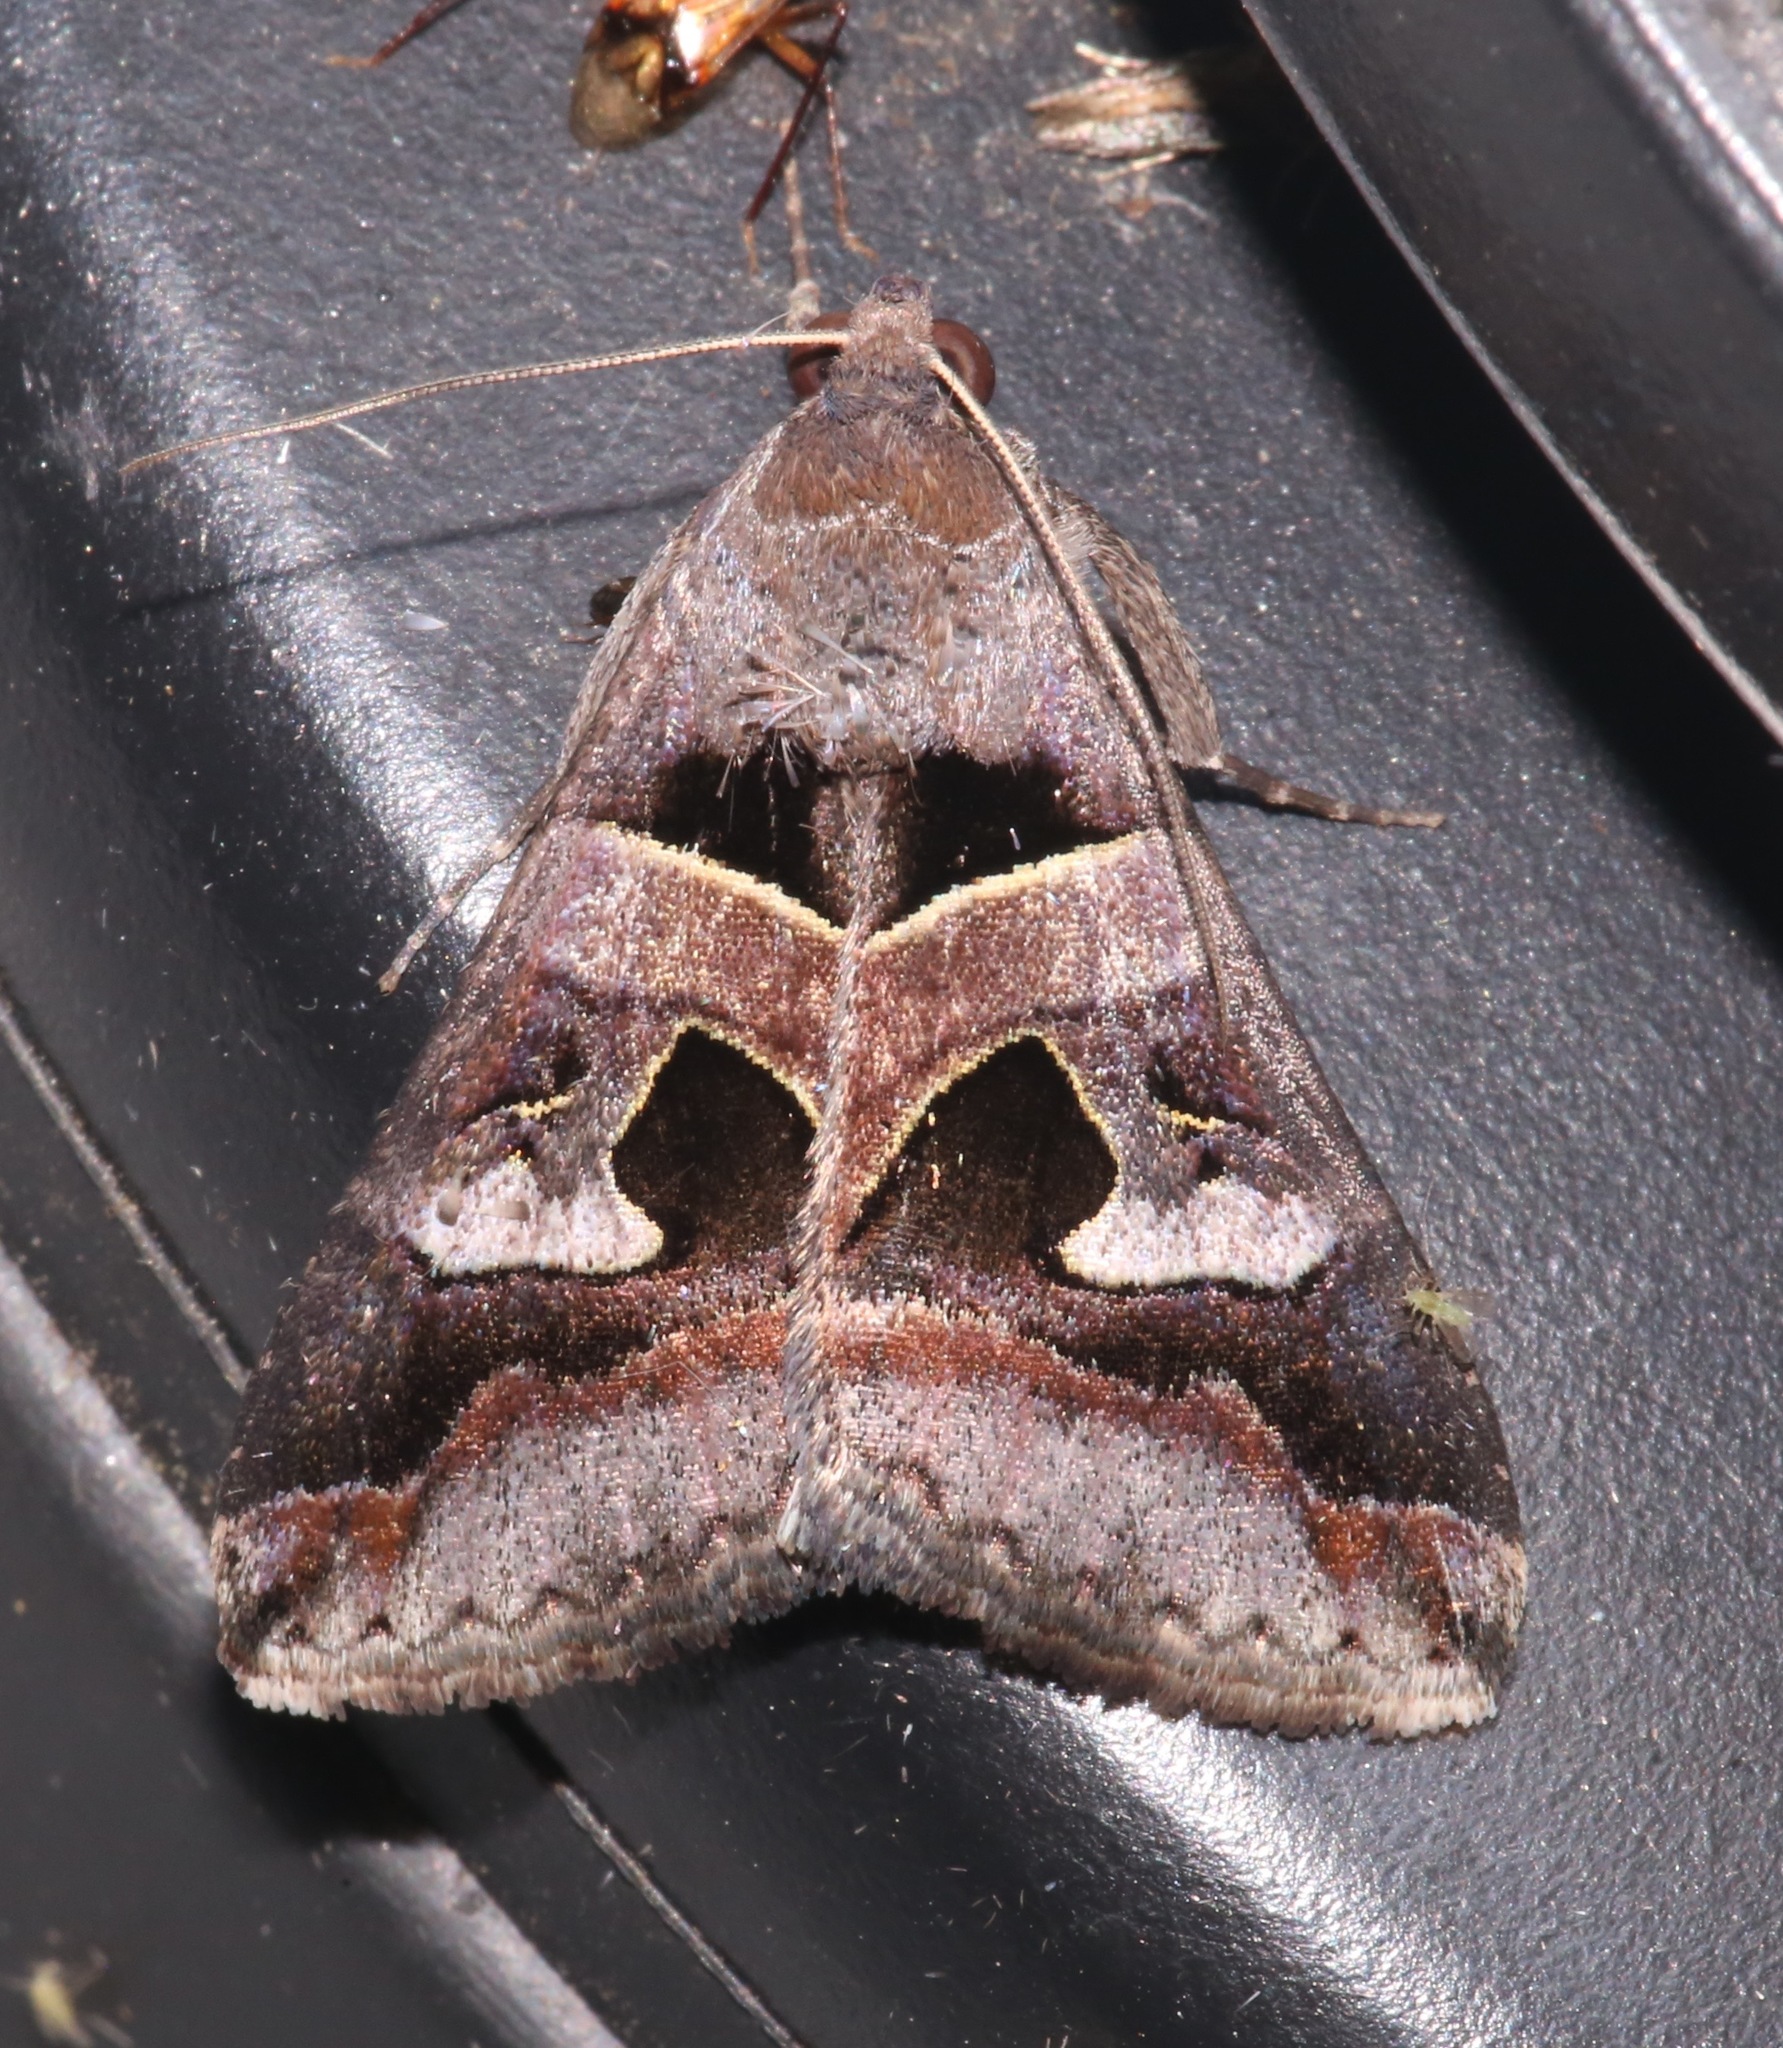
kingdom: Animalia
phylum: Arthropoda
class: Insecta
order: Lepidoptera
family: Erebidae
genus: Melipotis
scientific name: Melipotis perpendicularis
